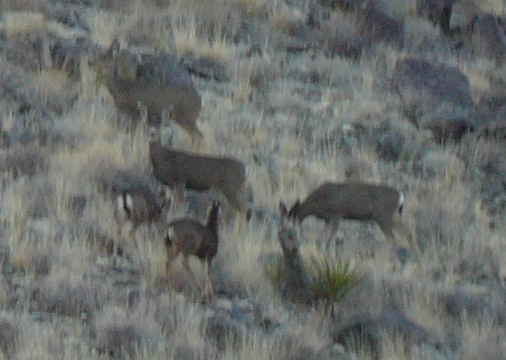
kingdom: Animalia
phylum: Chordata
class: Mammalia
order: Artiodactyla
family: Cervidae
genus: Odocoileus
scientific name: Odocoileus hemionus
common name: Mule deer
